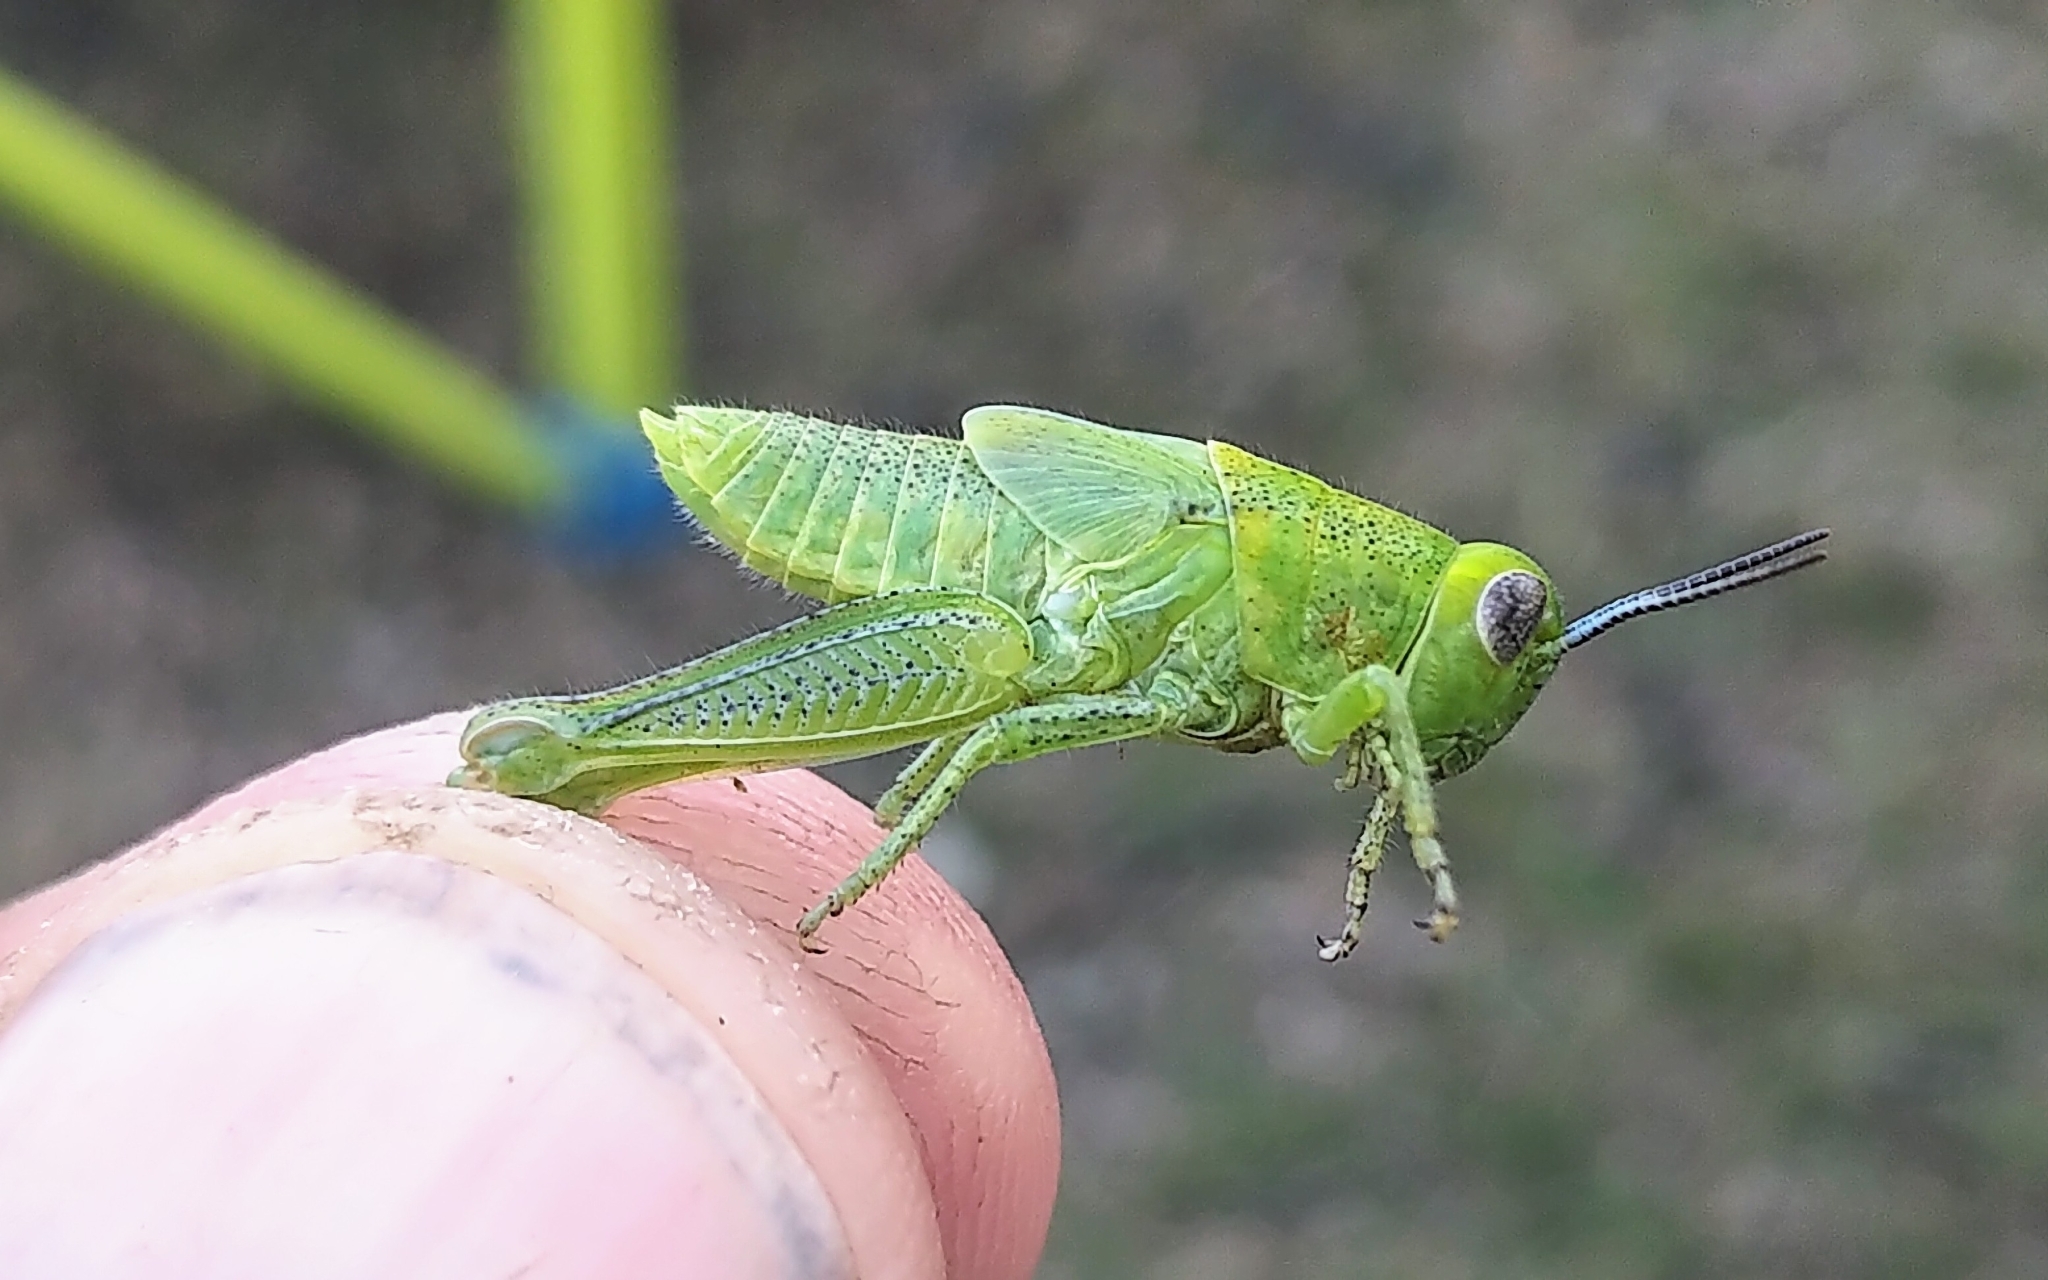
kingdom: Animalia
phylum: Arthropoda
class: Insecta
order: Orthoptera
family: Acrididae
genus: Melanoplus
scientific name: Melanoplus packardii
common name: Packard's grasshopper
